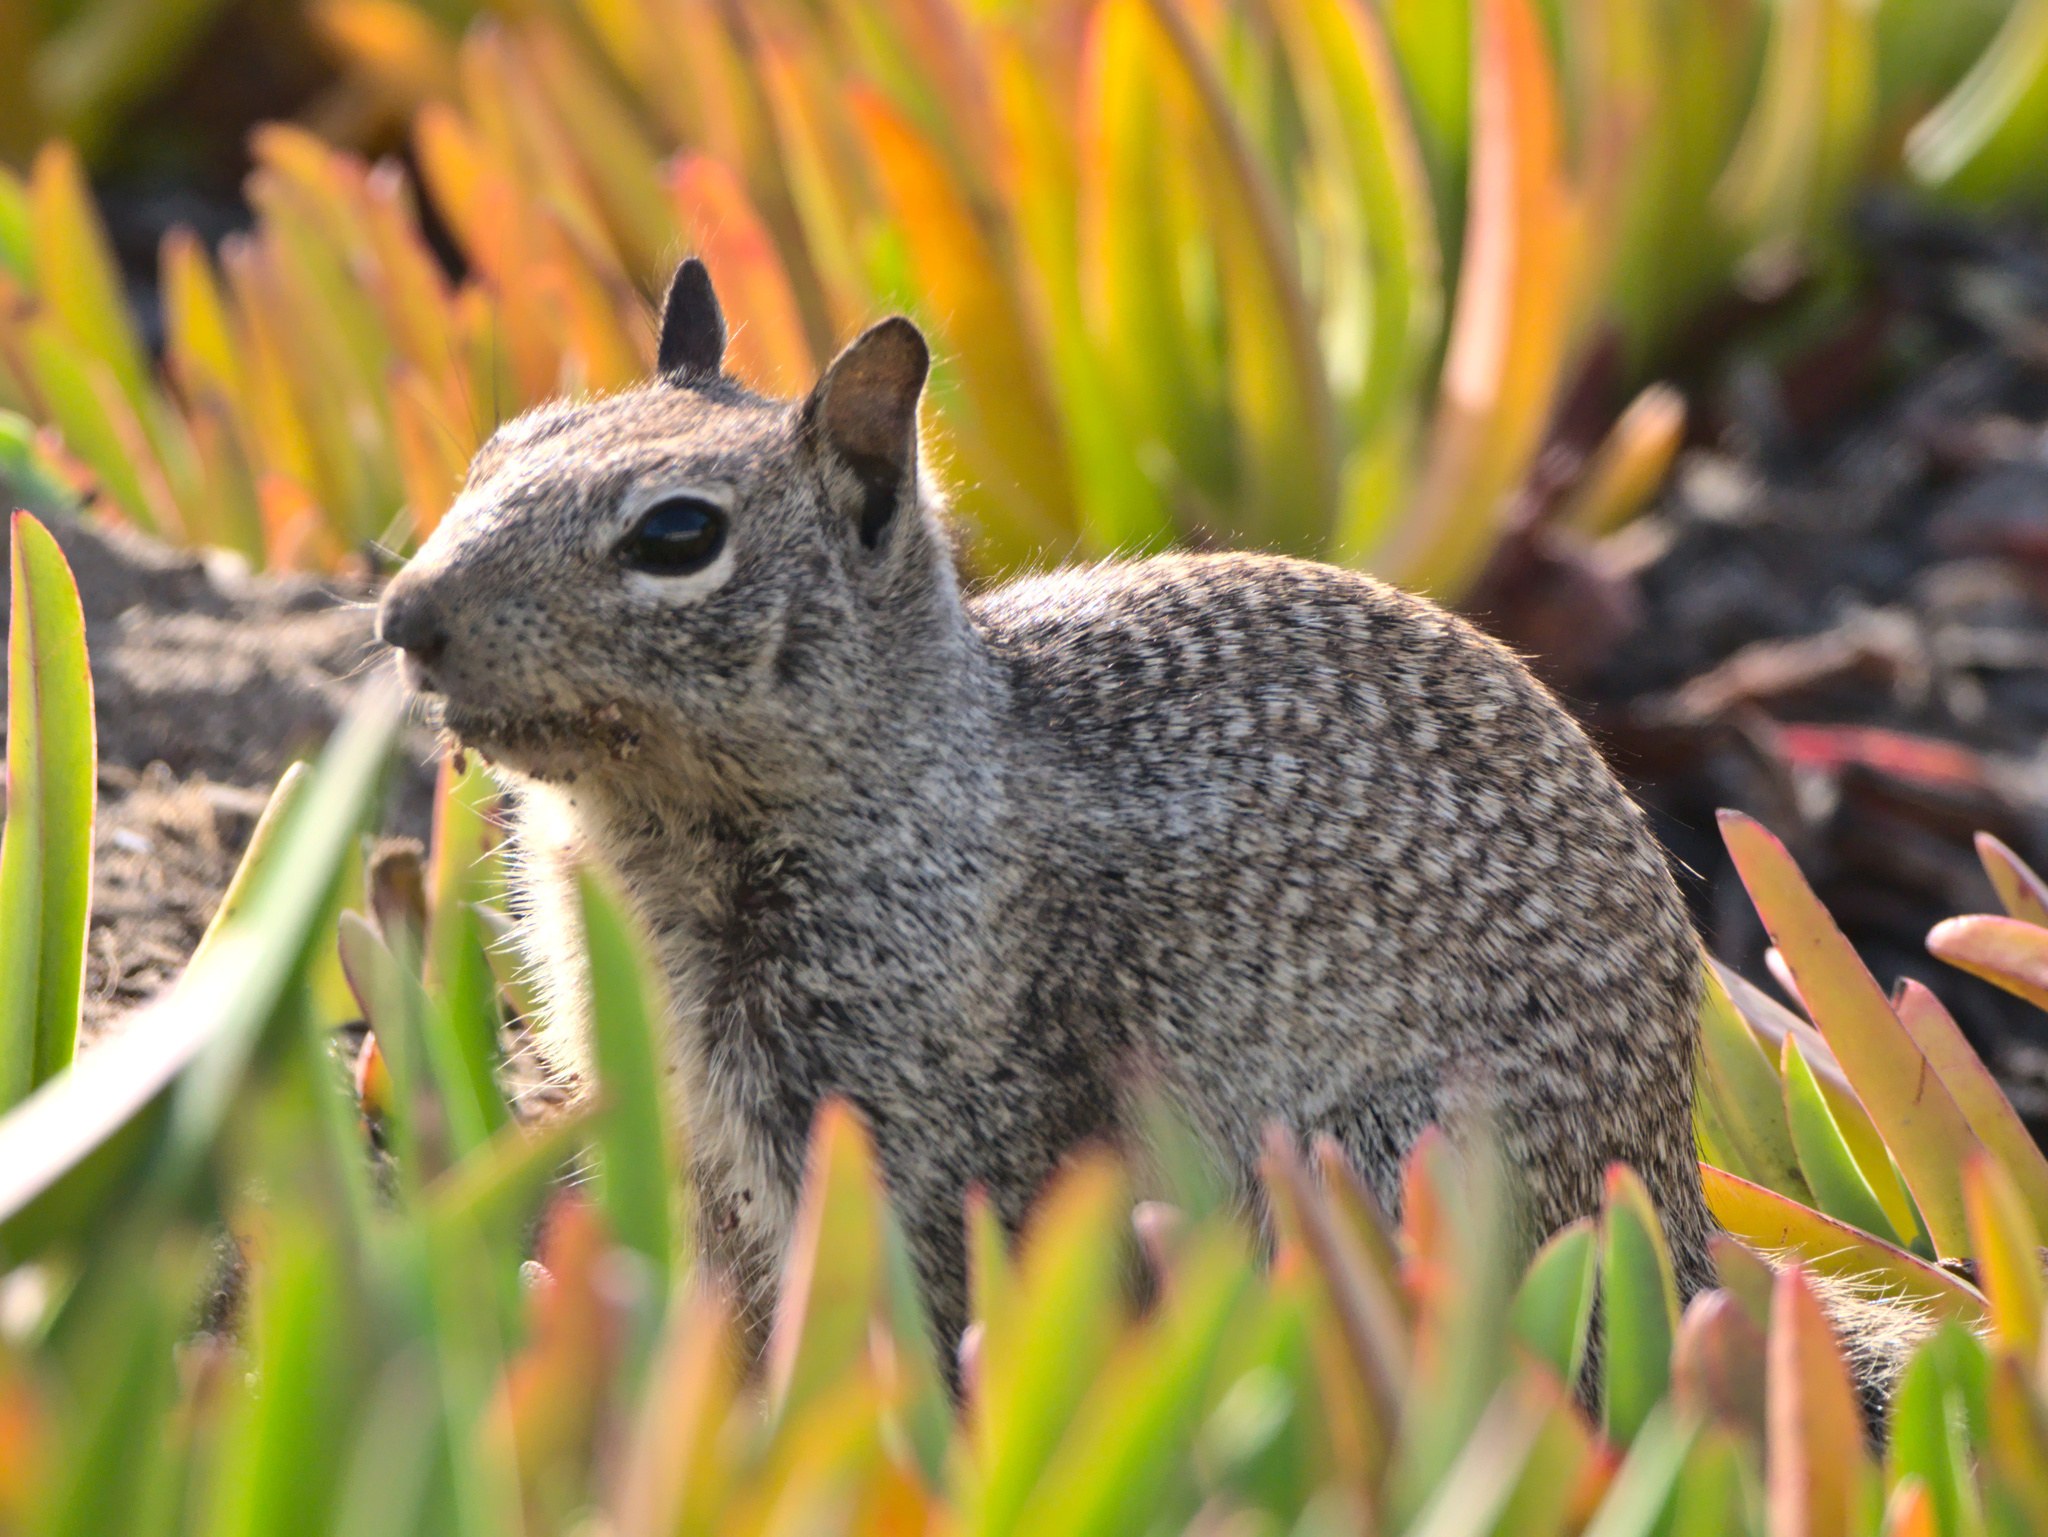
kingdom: Animalia
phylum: Chordata
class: Mammalia
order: Rodentia
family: Sciuridae
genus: Otospermophilus
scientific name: Otospermophilus beecheyi
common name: California ground squirrel
